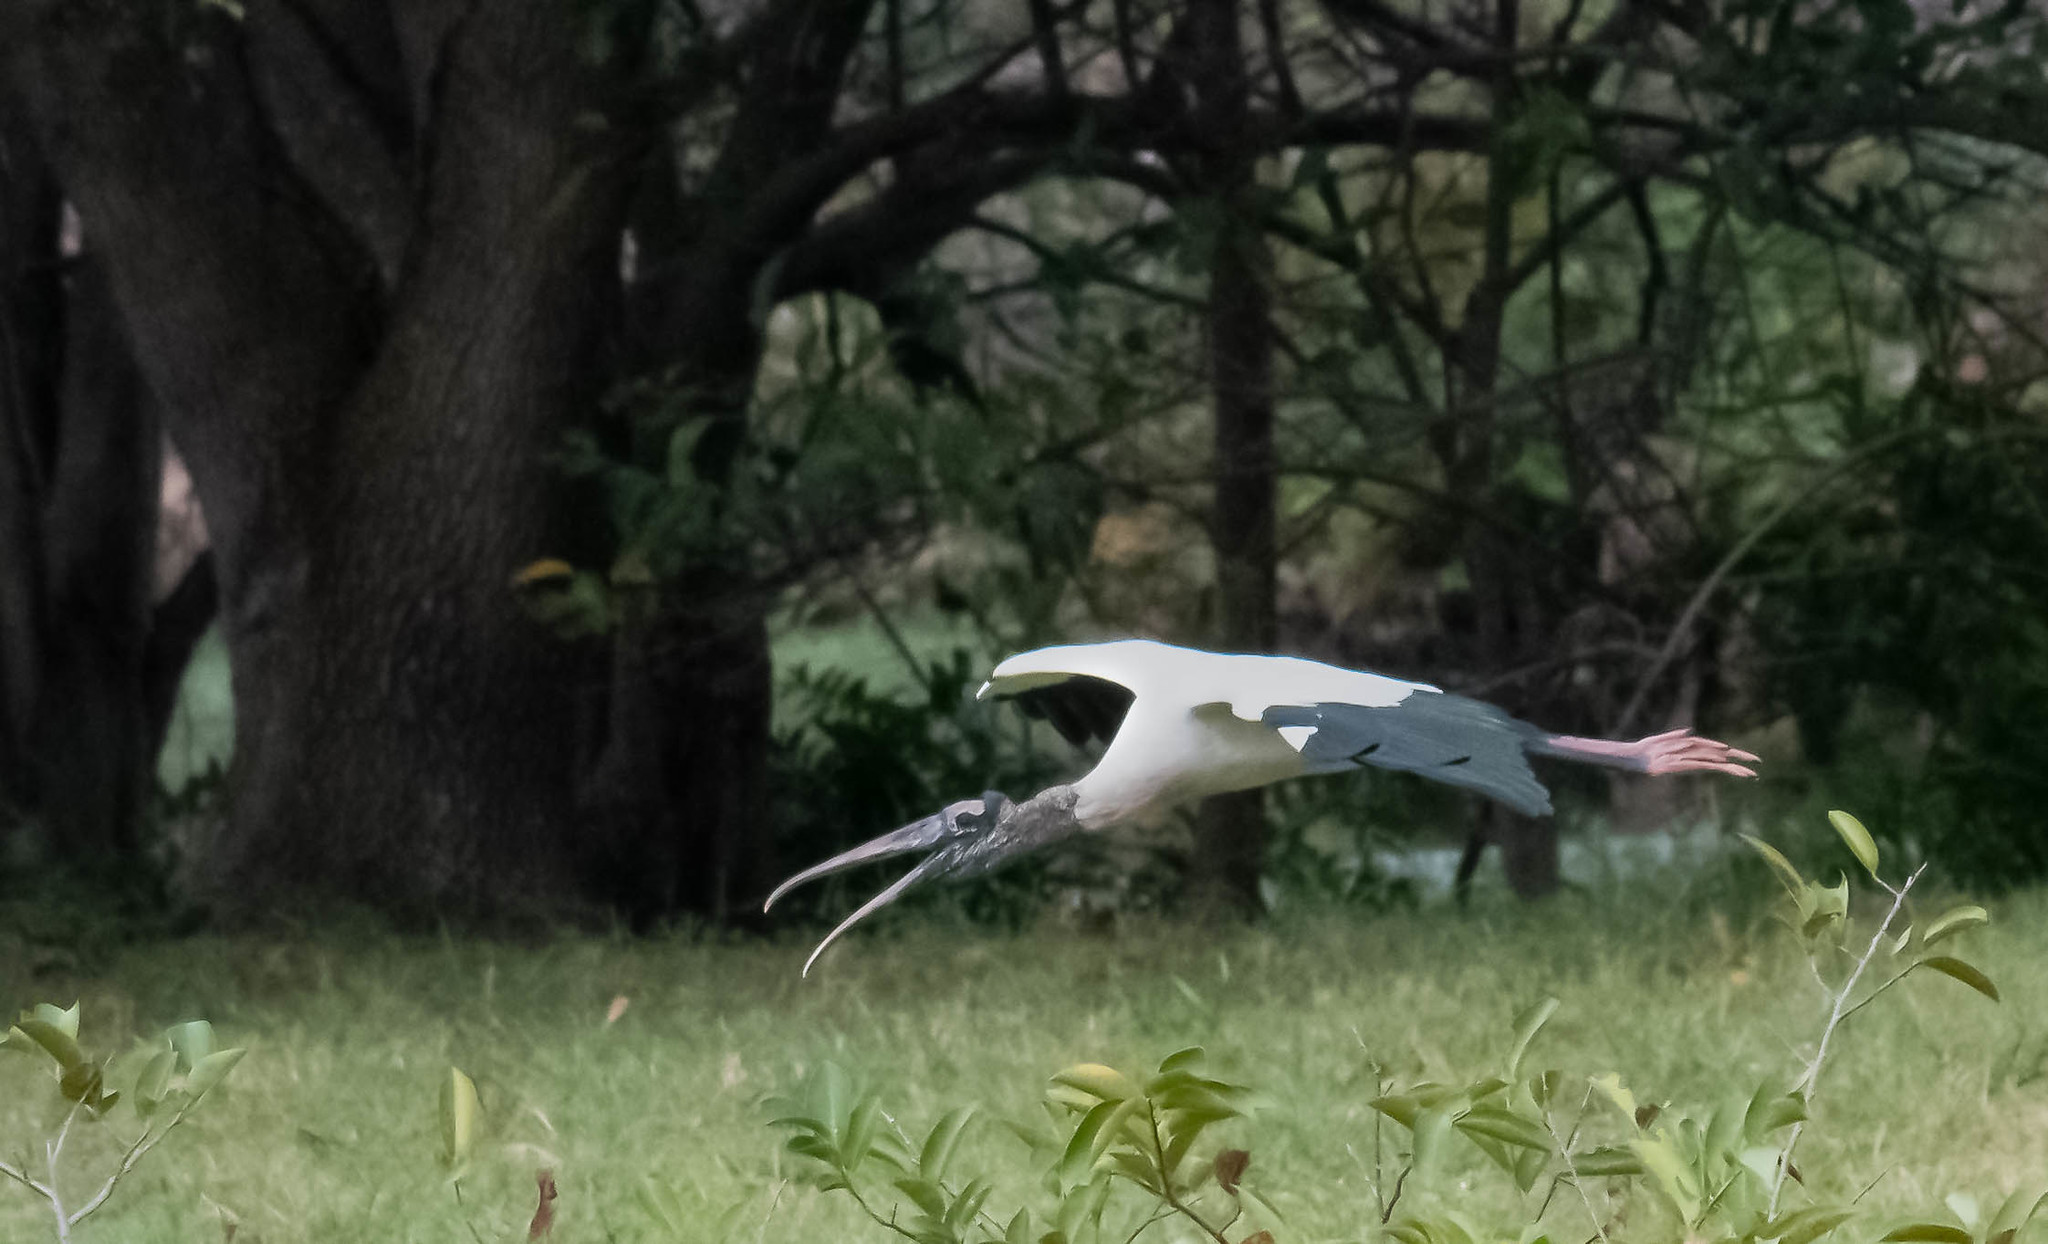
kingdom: Animalia
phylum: Chordata
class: Aves
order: Ciconiiformes
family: Ciconiidae
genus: Mycteria
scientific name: Mycteria americana
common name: Wood stork
